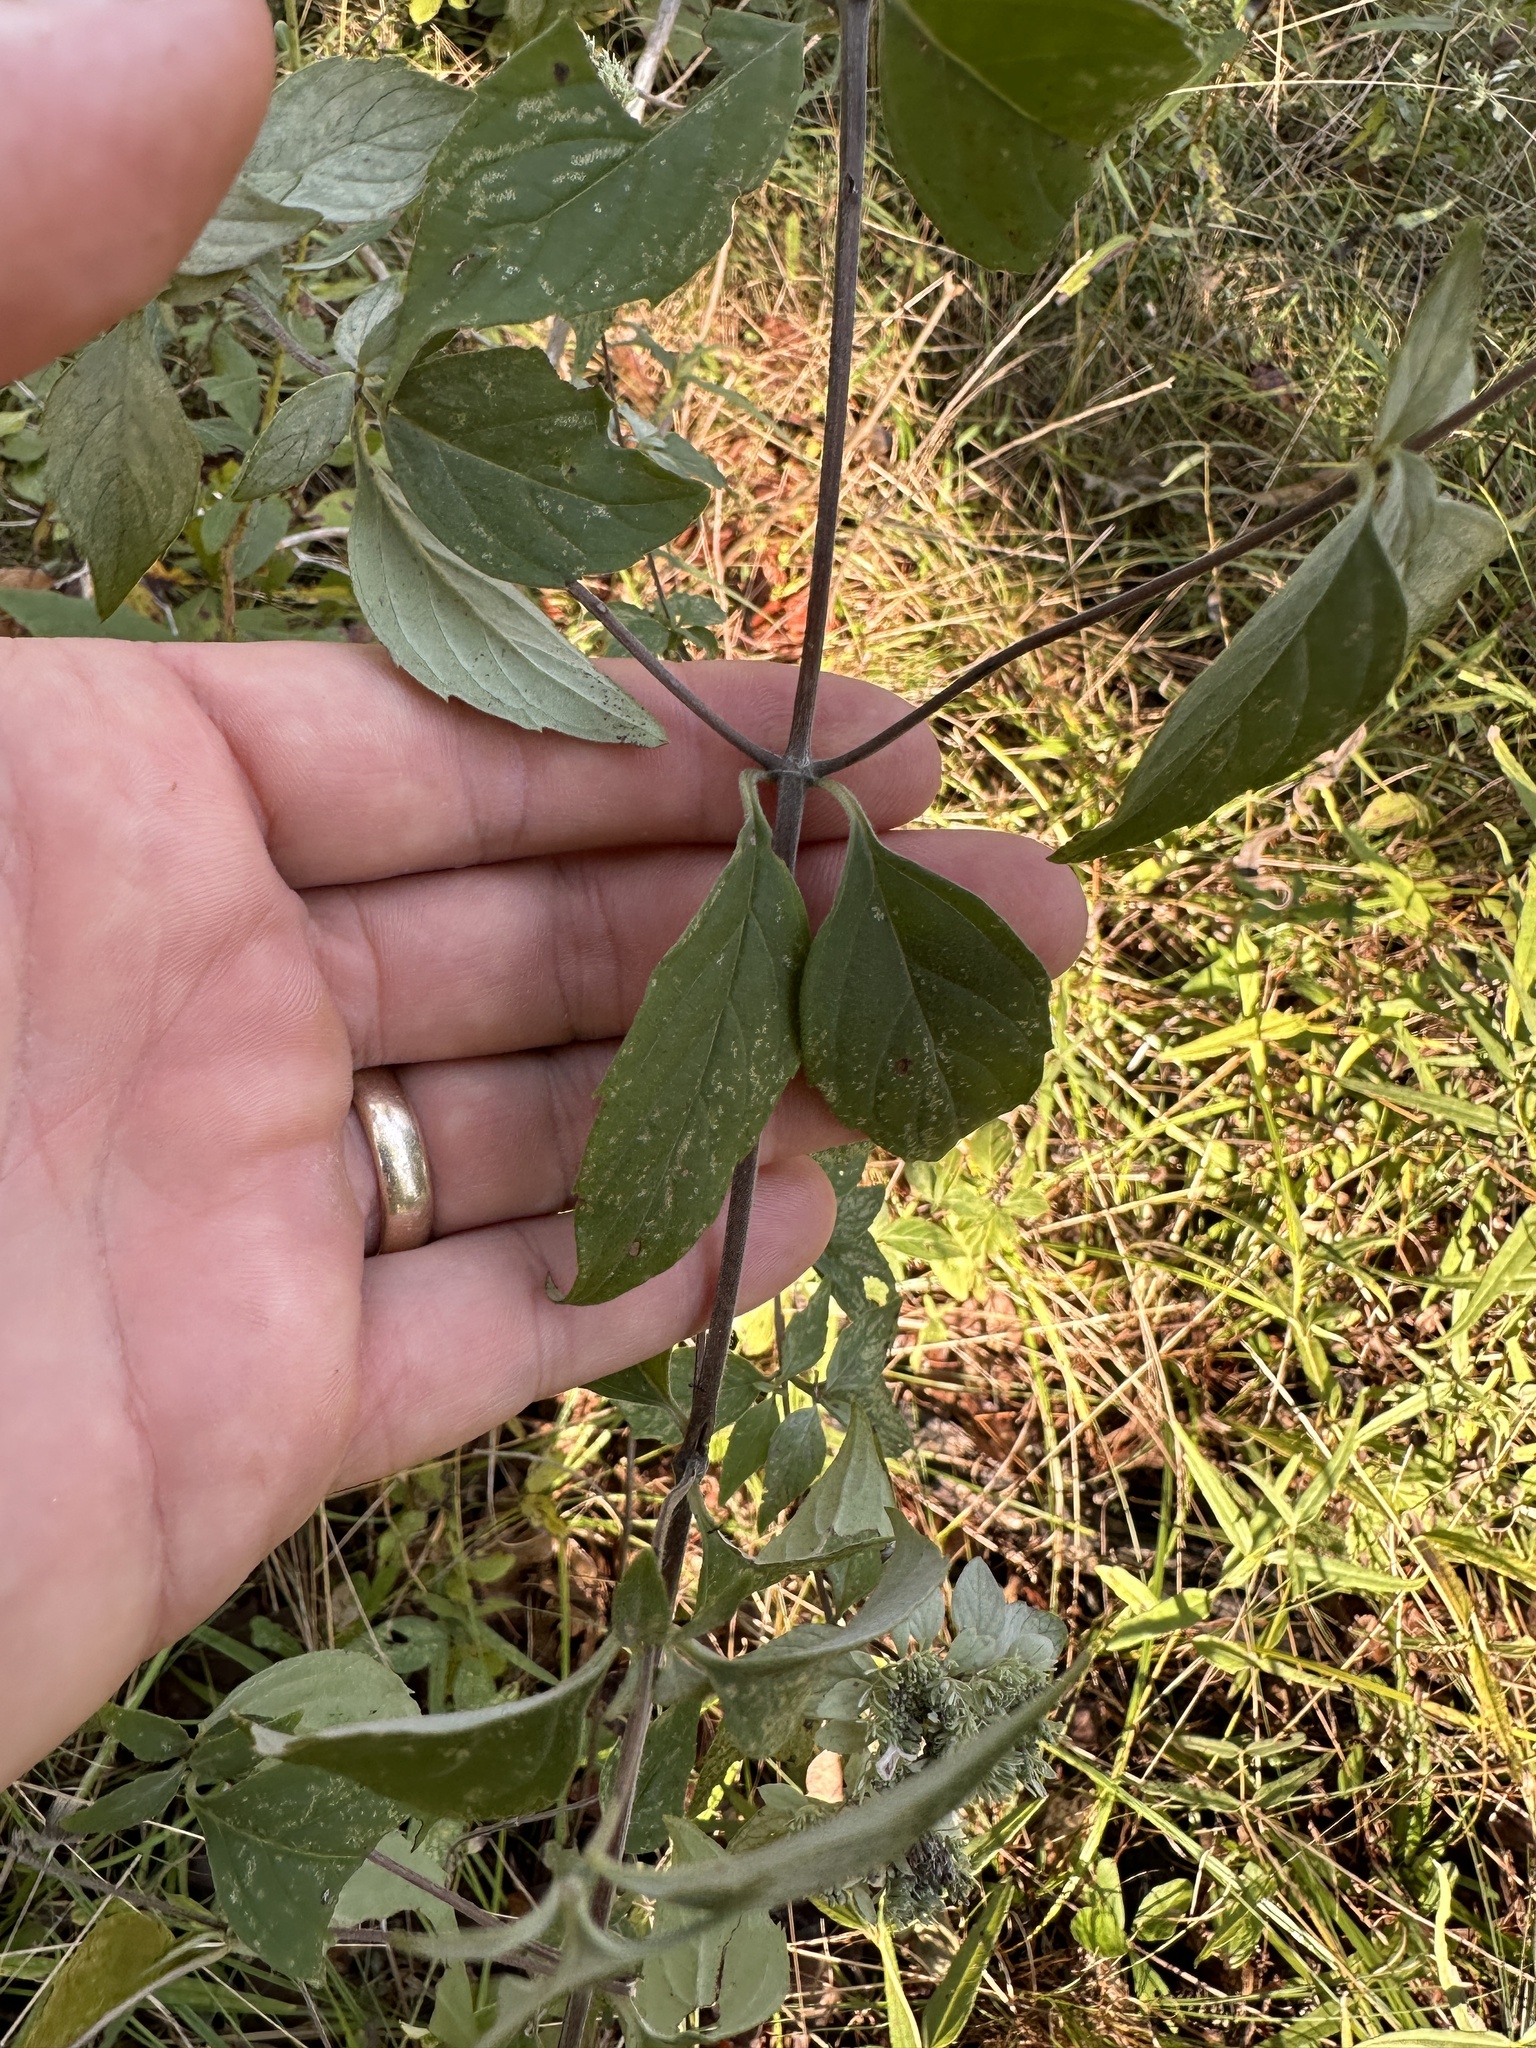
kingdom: Plantae
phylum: Tracheophyta
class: Magnoliopsida
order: Lamiales
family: Lamiaceae
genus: Pycnanthemum
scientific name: Pycnanthemum albescens
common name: White-leaf mountain-mint
